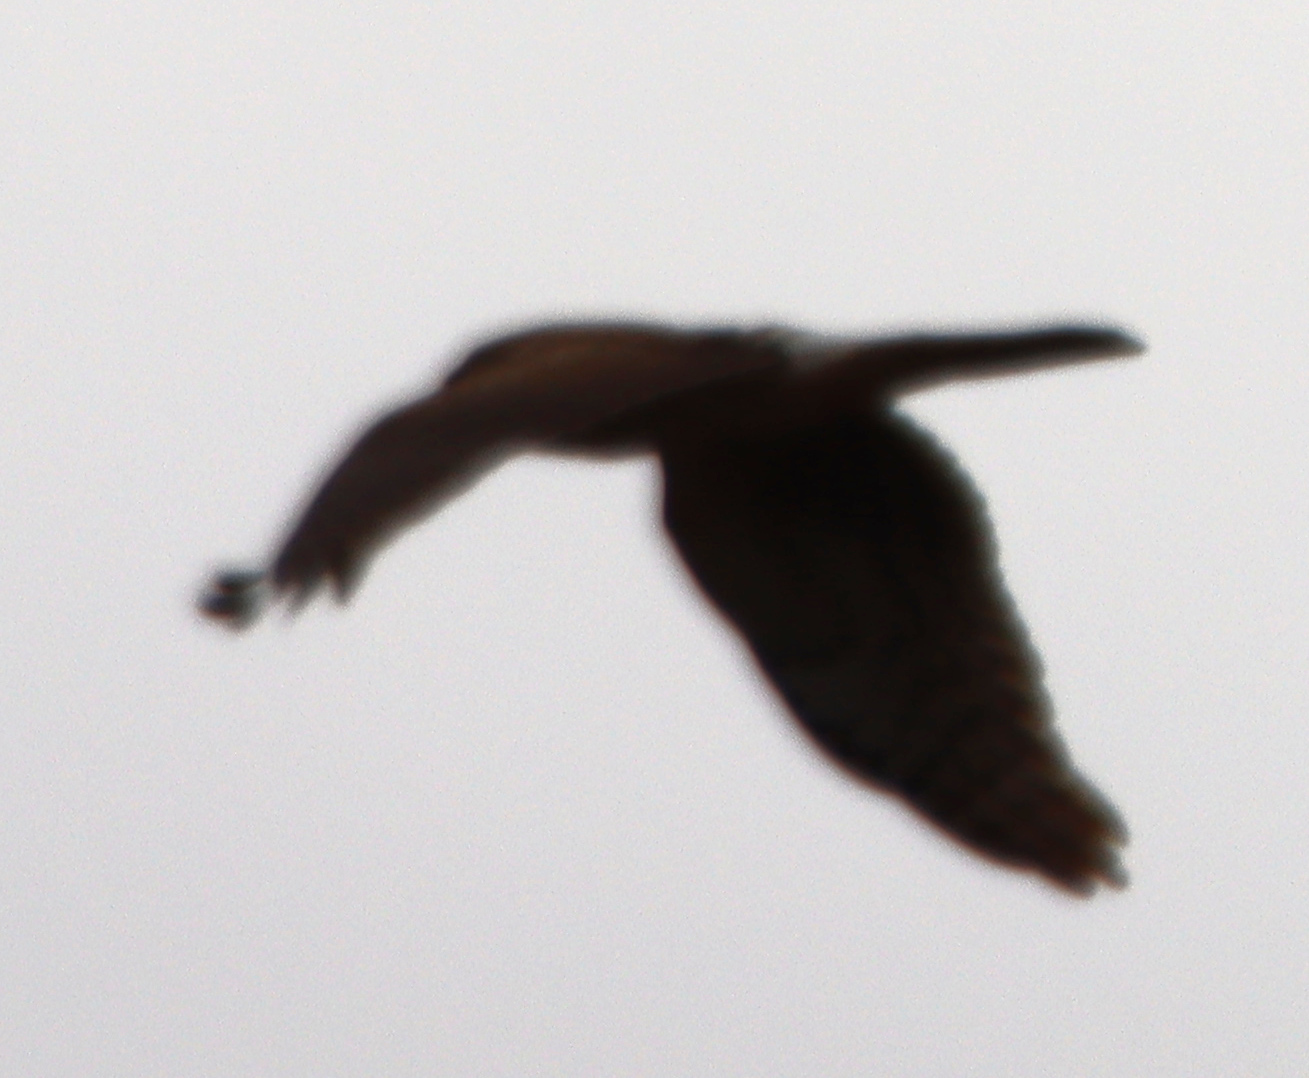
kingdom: Animalia
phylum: Chordata
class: Aves
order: Accipitriformes
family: Accipitridae
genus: Circus
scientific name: Circus cyaneus
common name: Hen harrier
